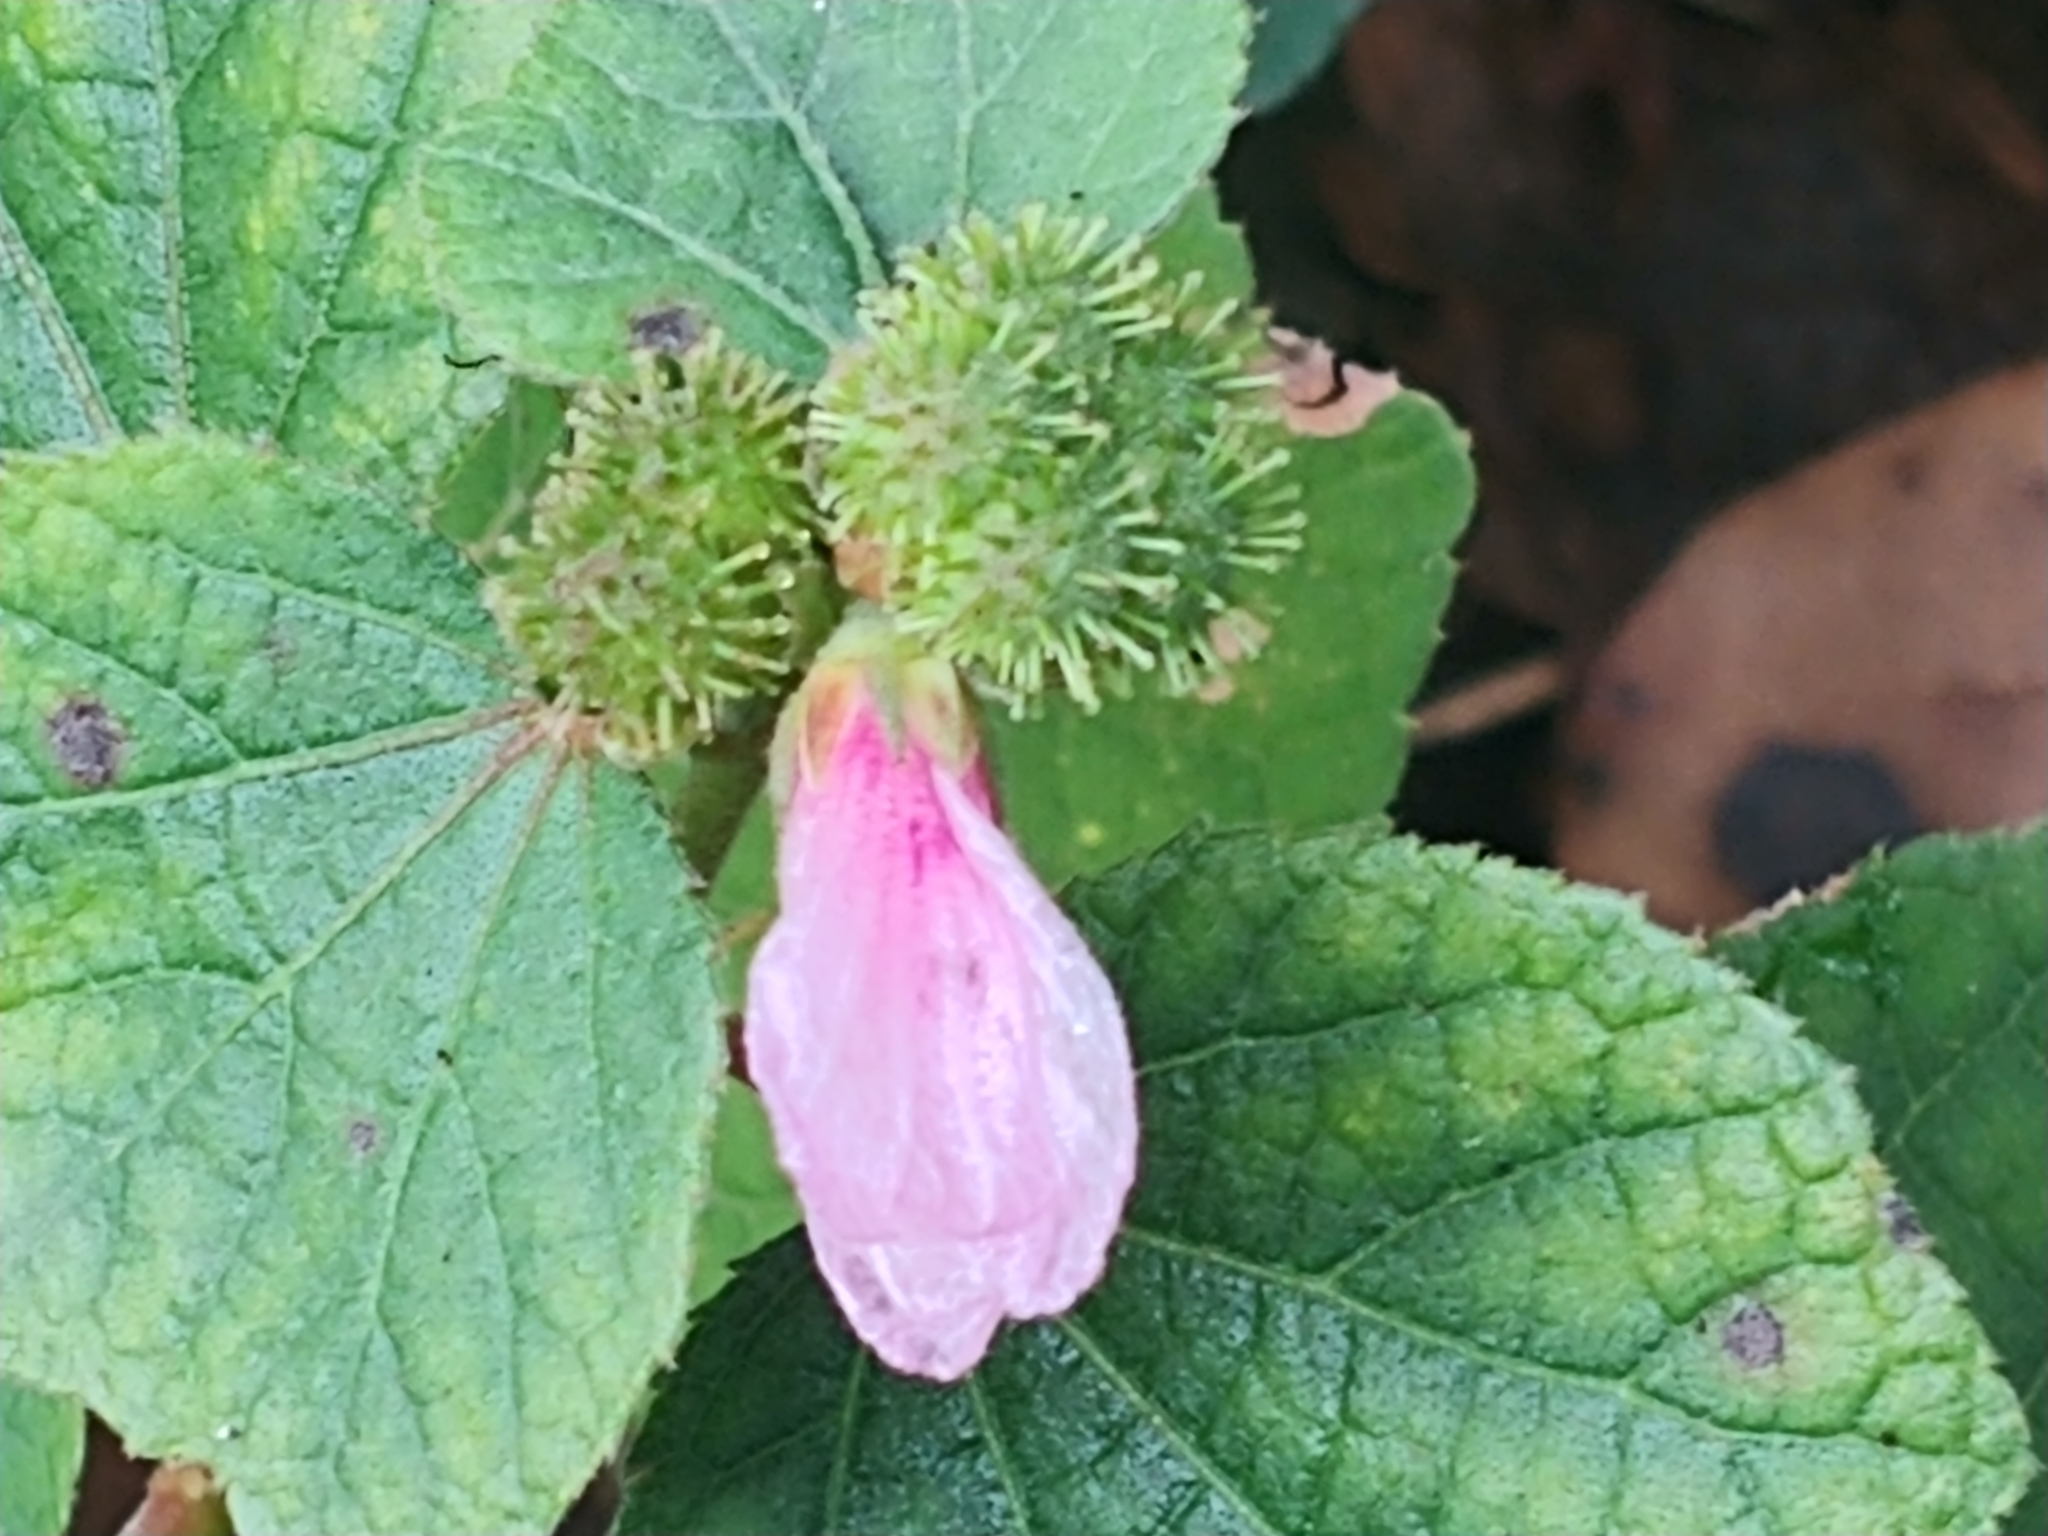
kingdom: Plantae
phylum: Tracheophyta
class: Magnoliopsida
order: Malvales
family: Malvaceae
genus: Urena
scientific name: Urena lobata
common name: Caesarweed
